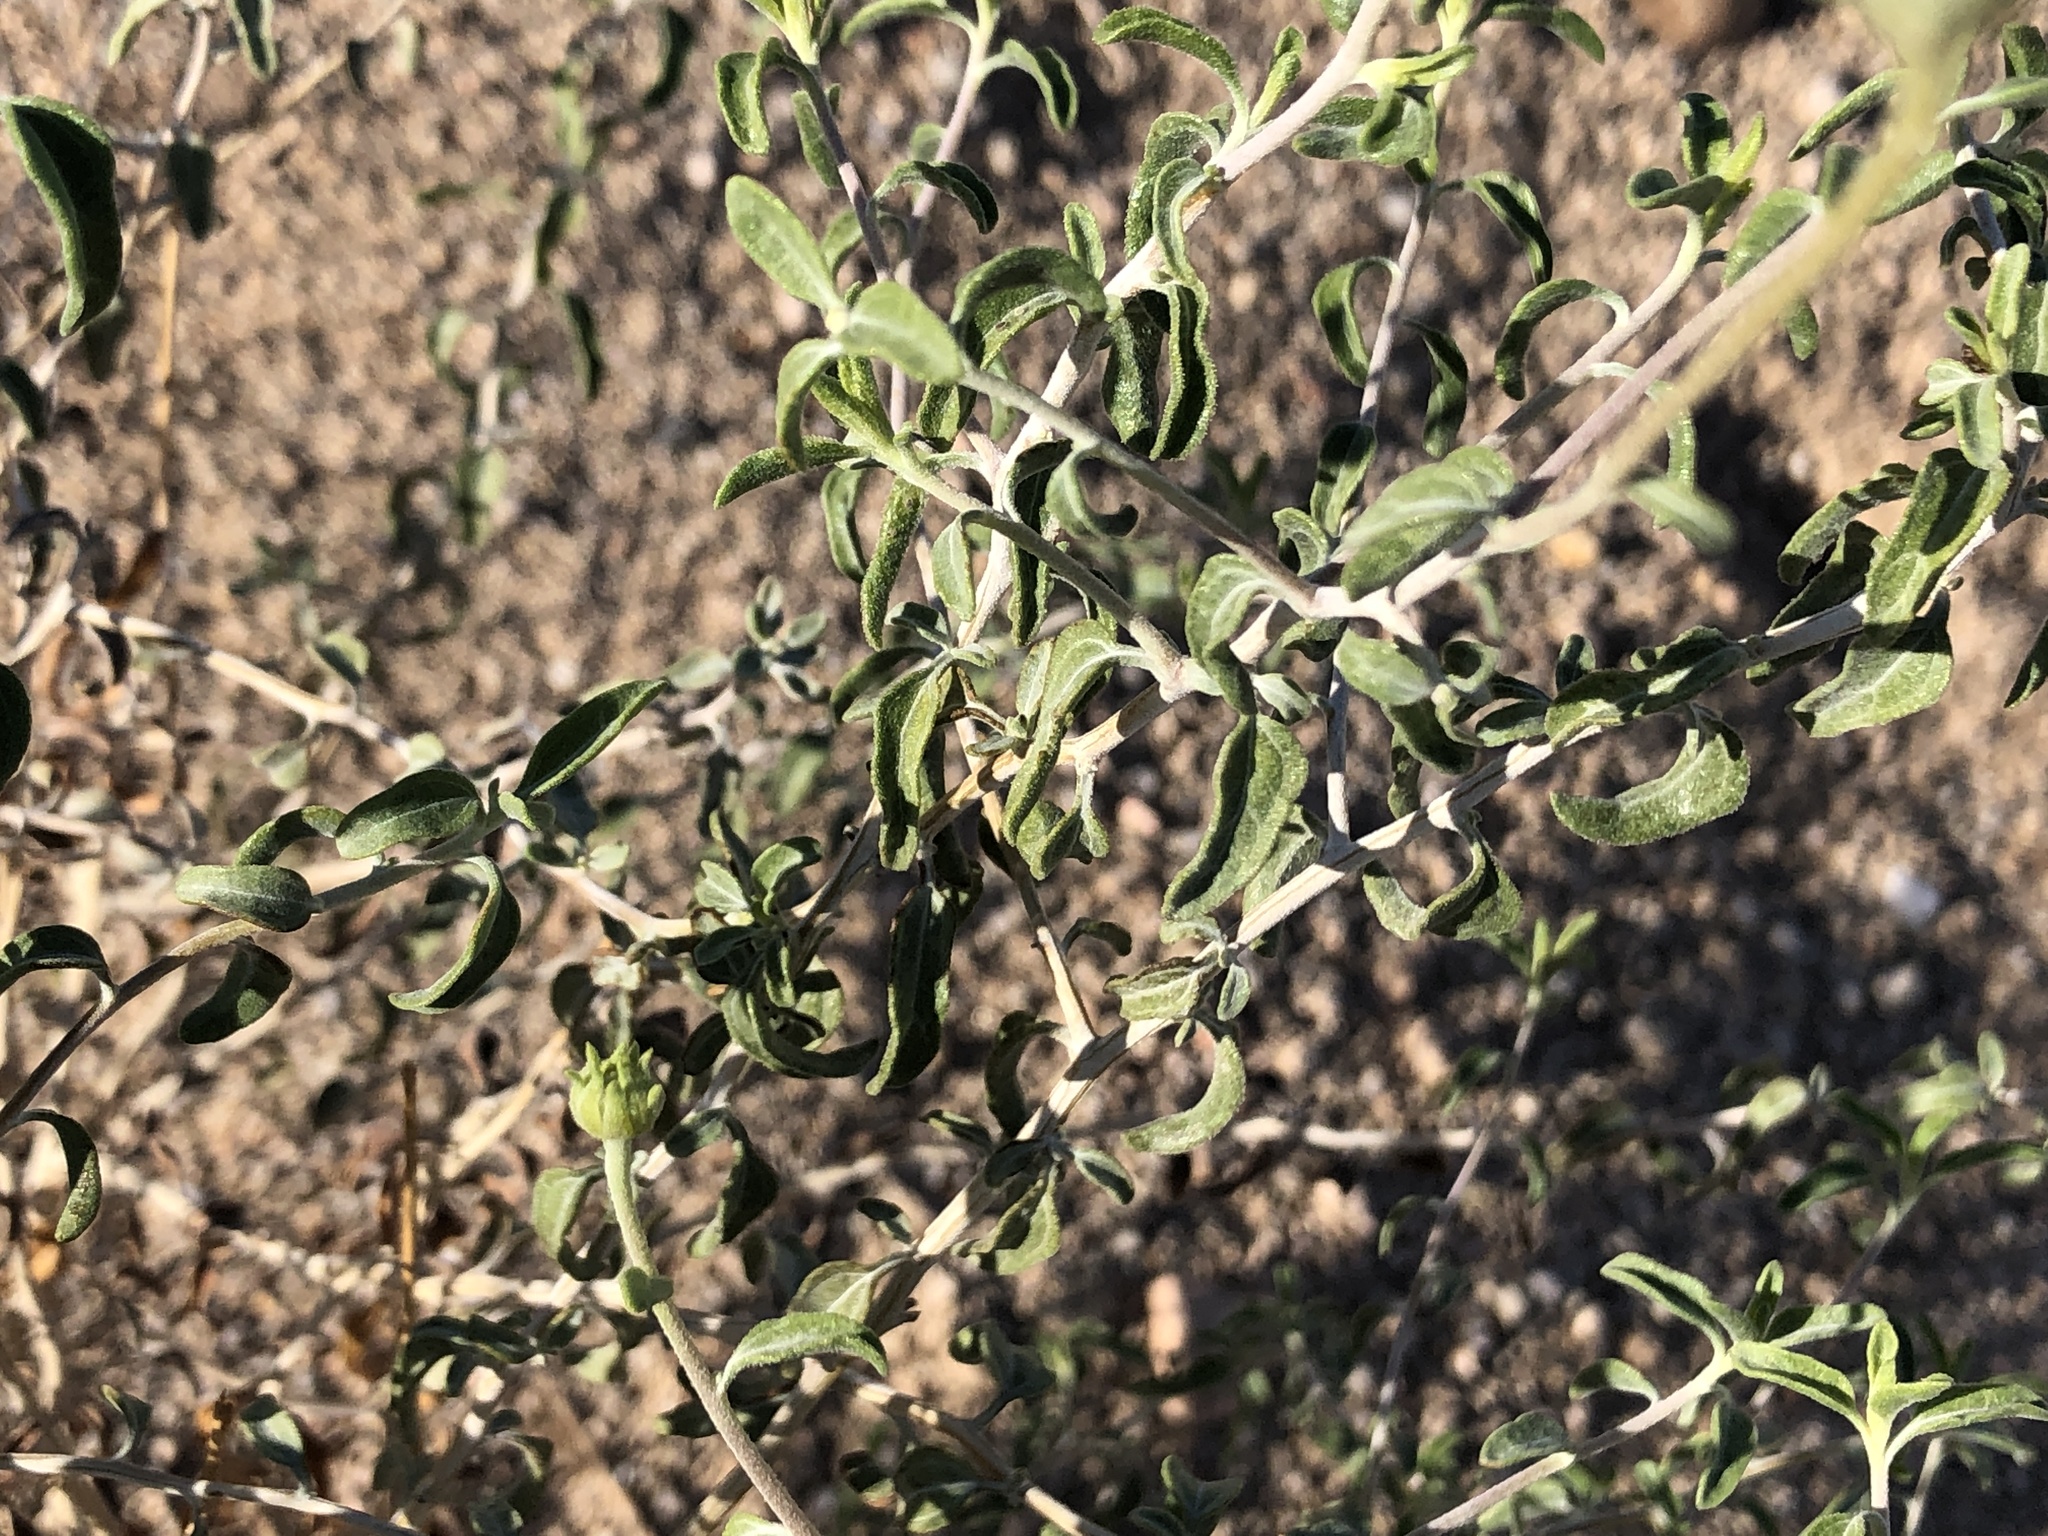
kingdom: Plantae
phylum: Tracheophyta
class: Magnoliopsida
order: Asterales
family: Asteraceae
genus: Encelia
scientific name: Encelia frutescens
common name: Bush encelia
